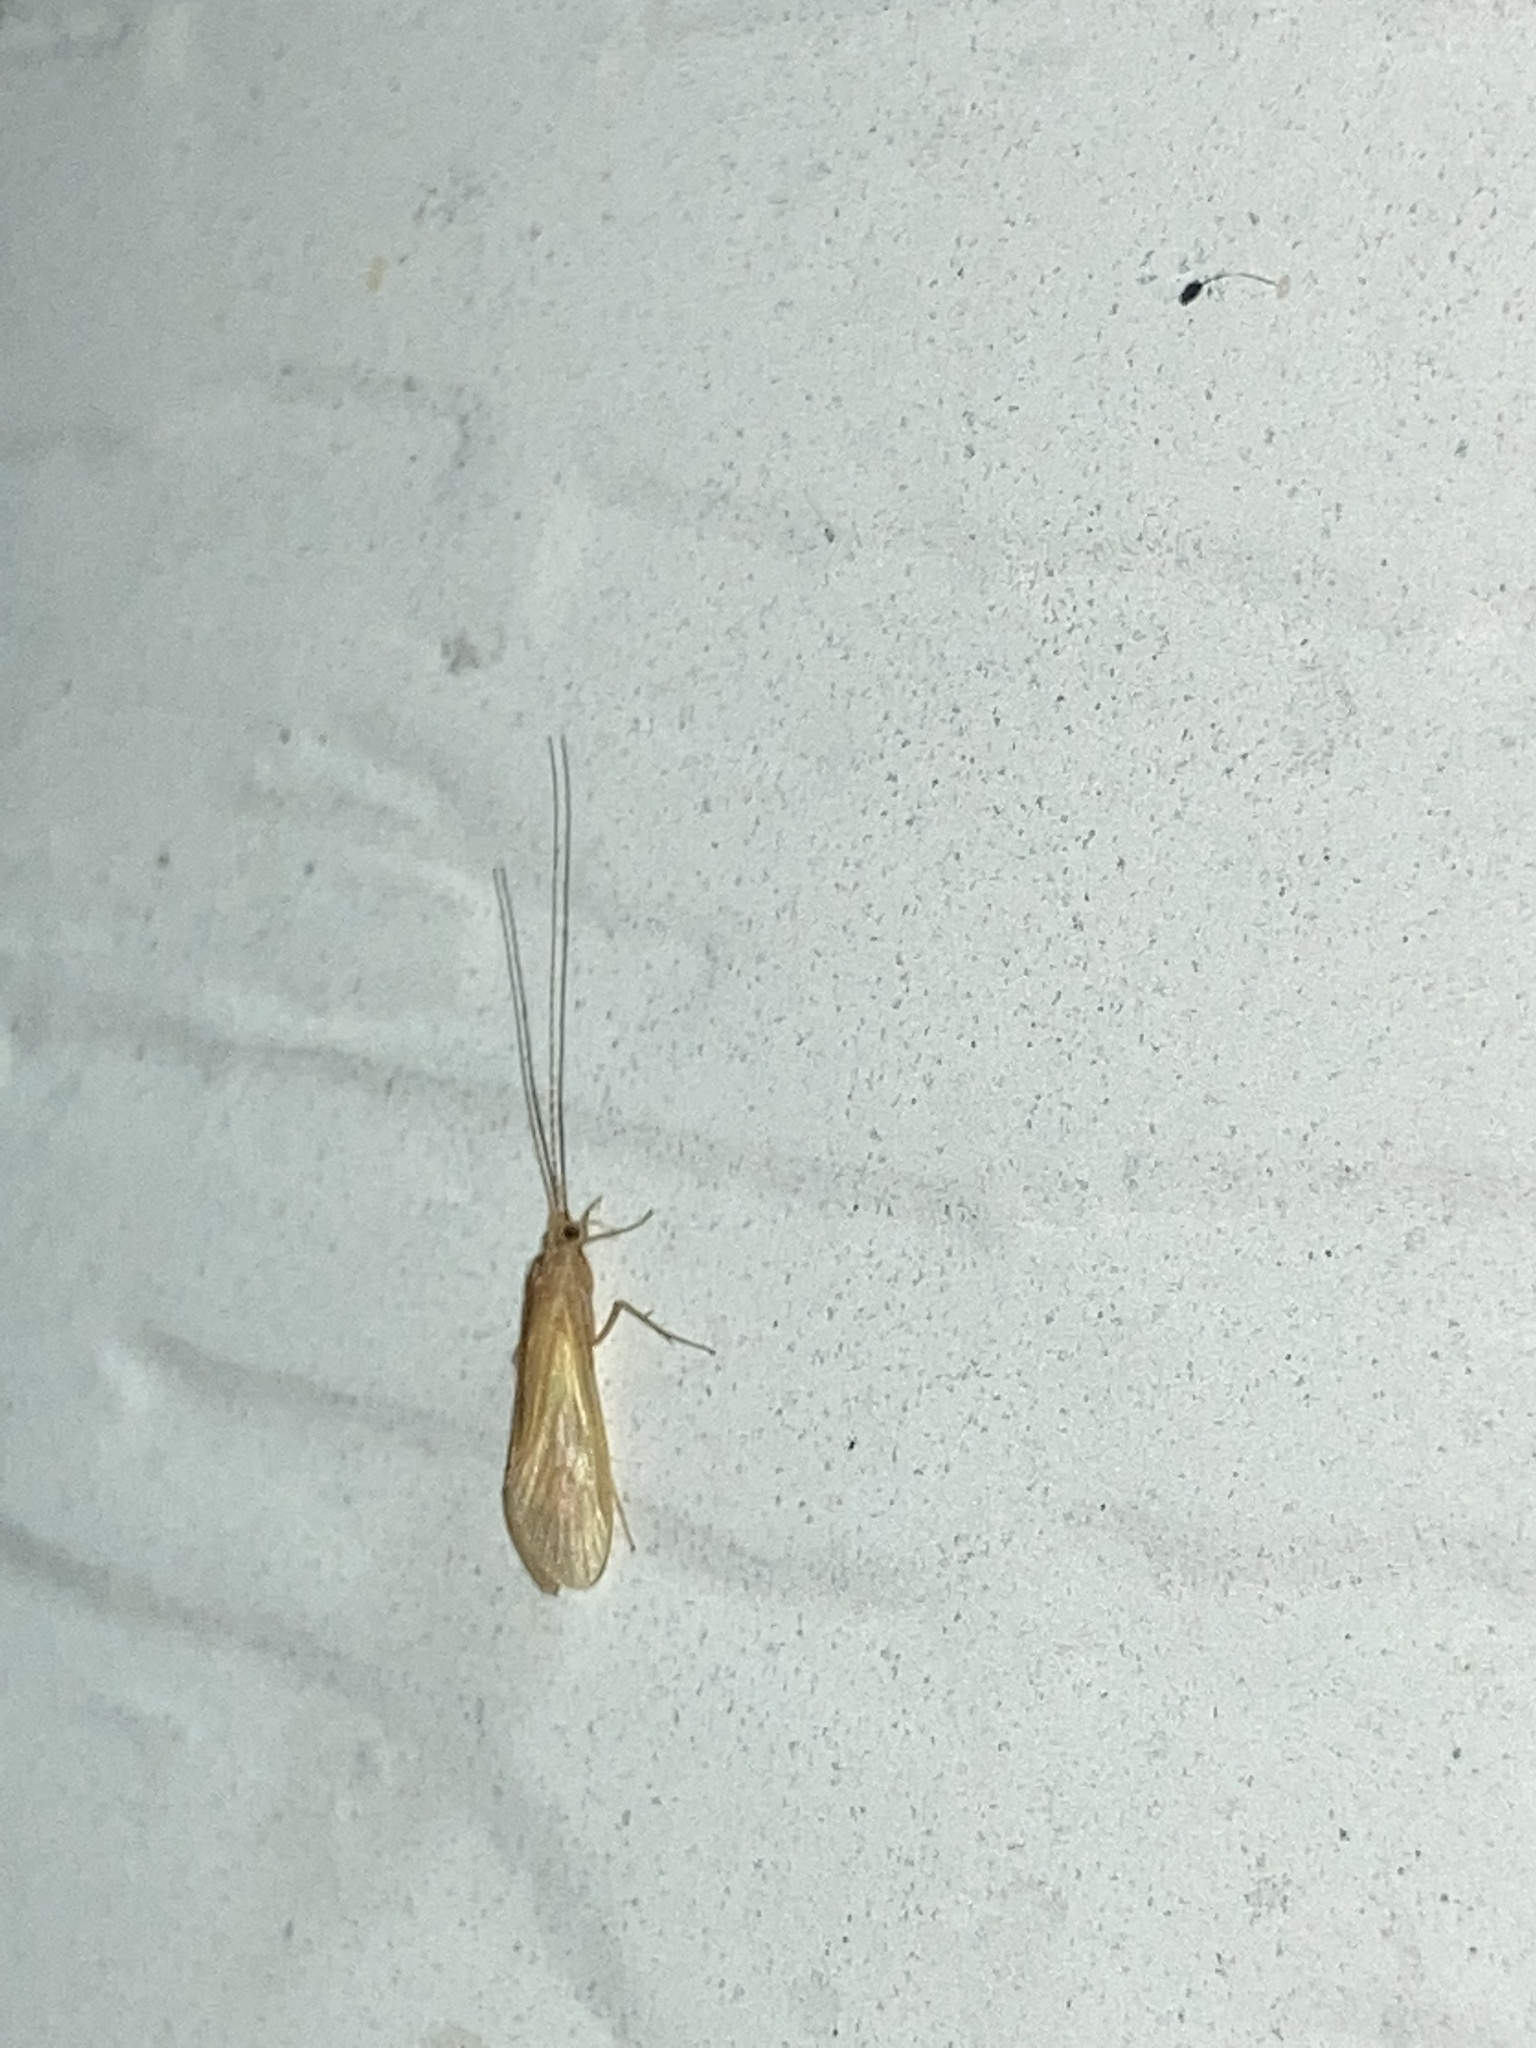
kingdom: Animalia
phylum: Arthropoda
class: Insecta
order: Trichoptera
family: Hydropsychidae
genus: Potamyia
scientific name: Potamyia flava
